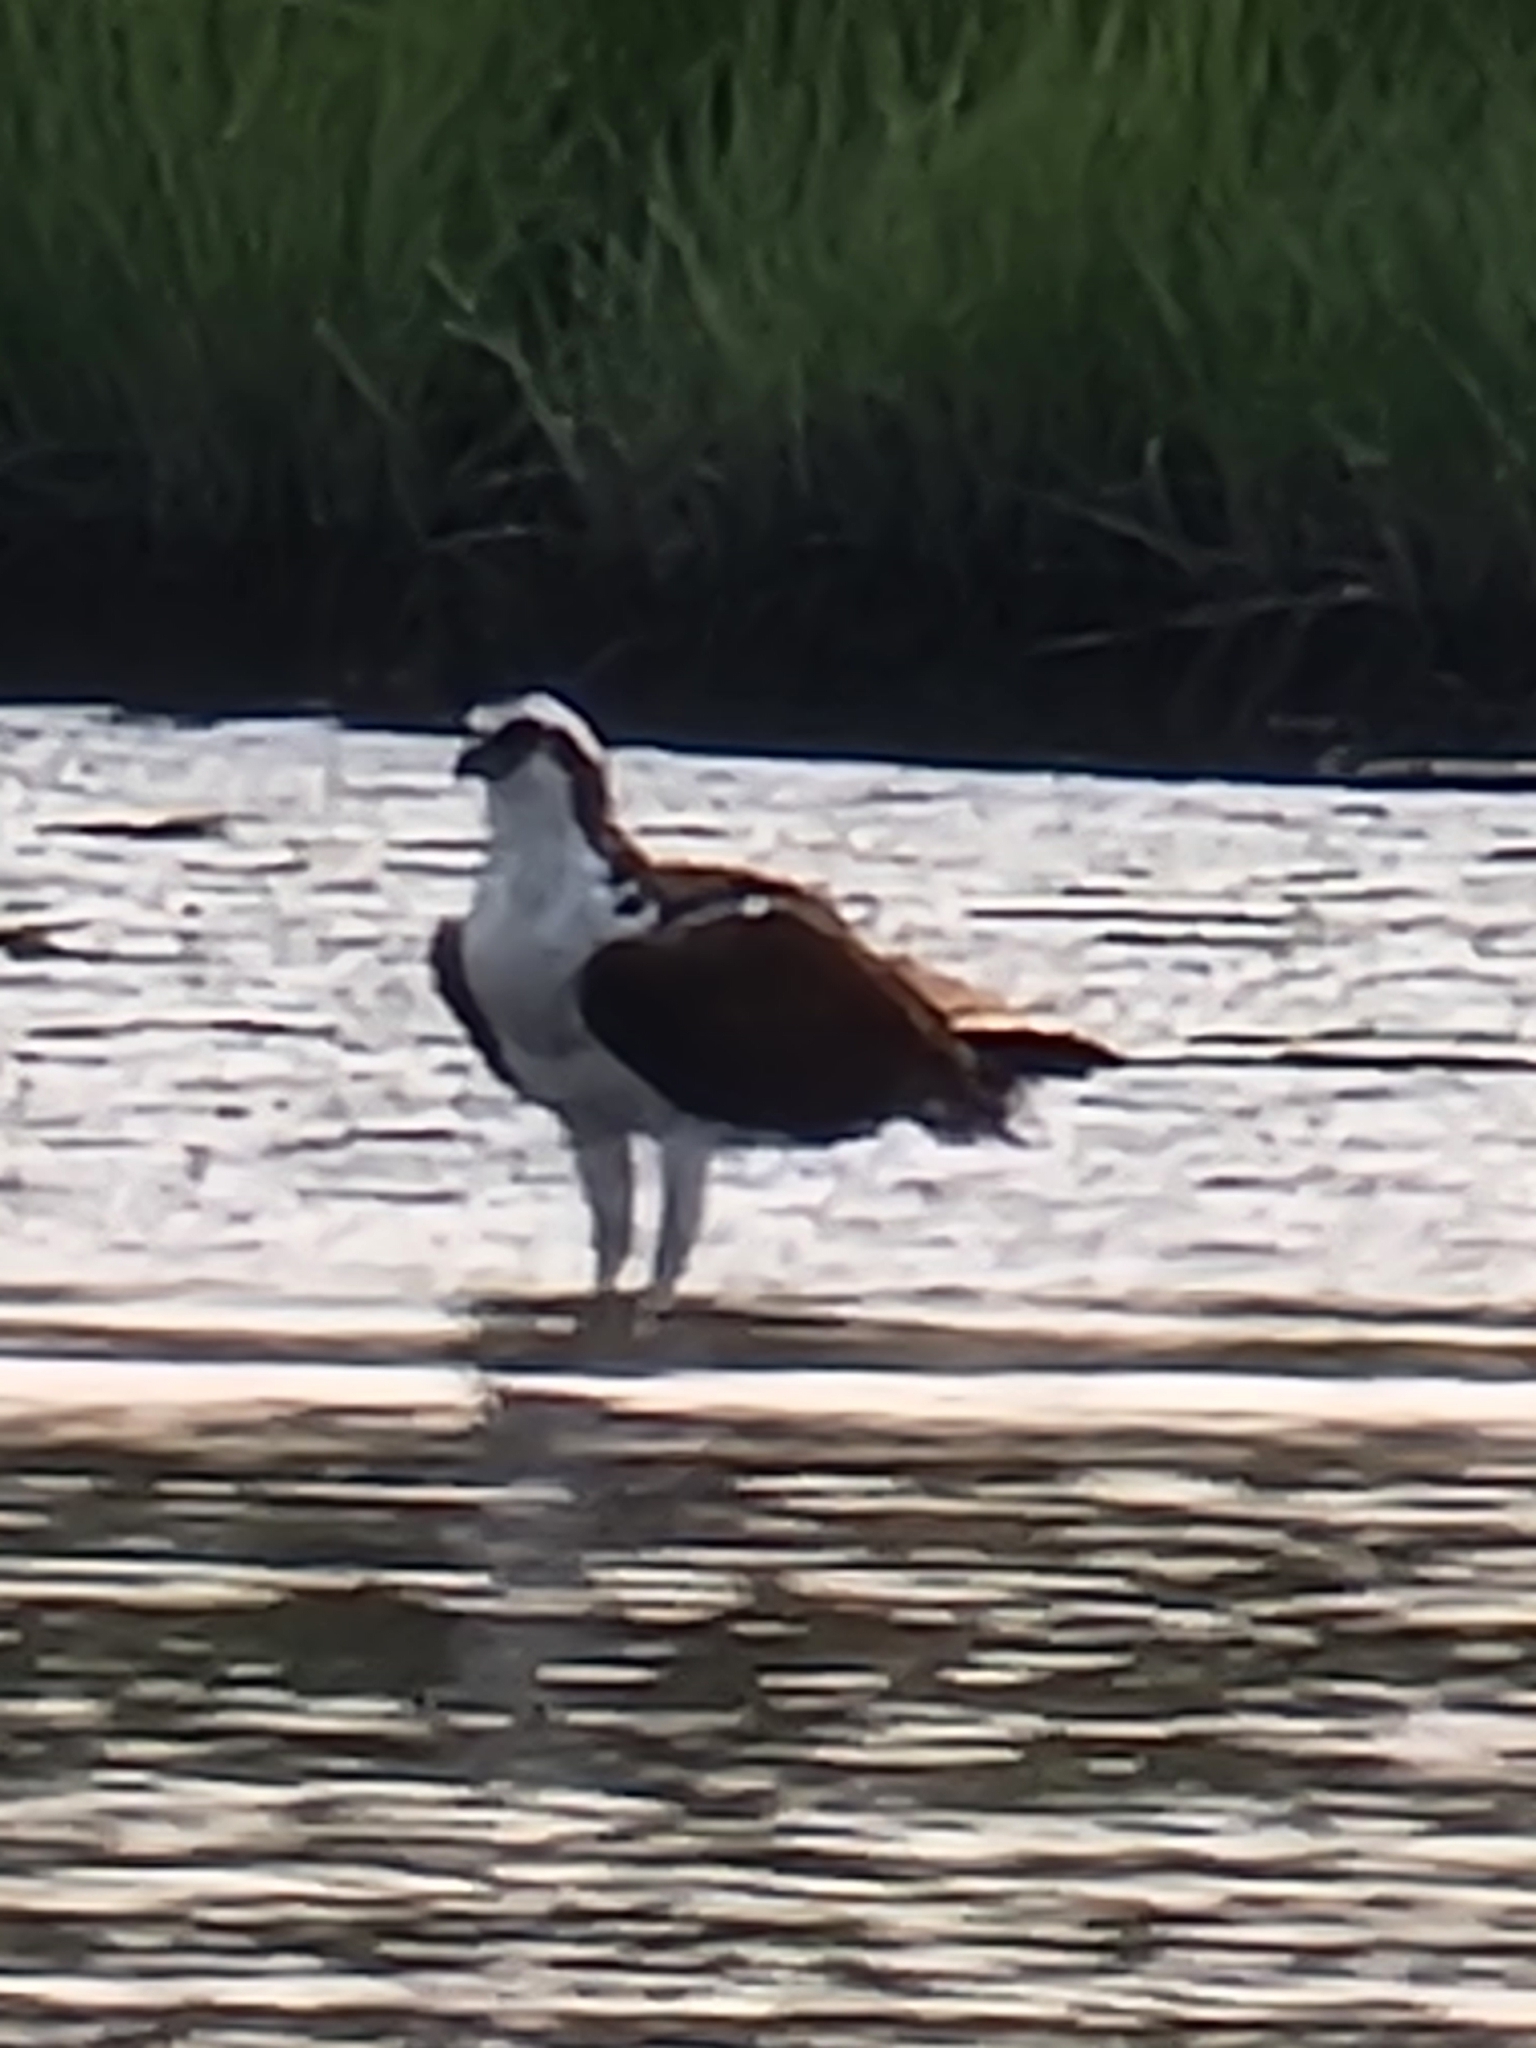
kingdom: Animalia
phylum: Chordata
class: Aves
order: Accipitriformes
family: Pandionidae
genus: Pandion
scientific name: Pandion haliaetus
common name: Osprey
